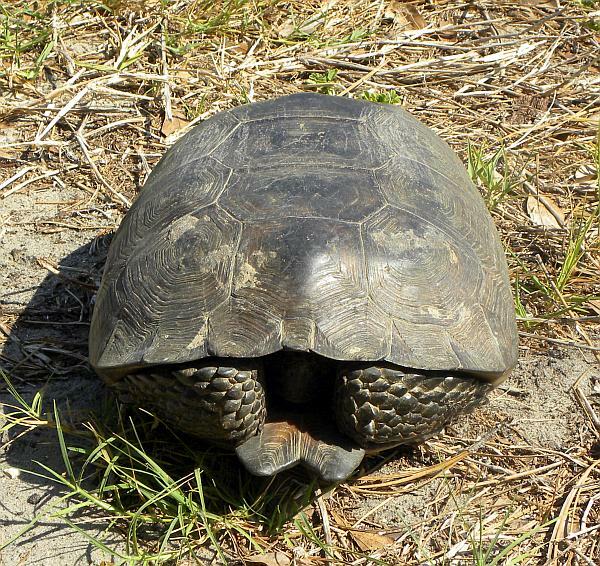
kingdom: Animalia
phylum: Chordata
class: Testudines
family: Testudinidae
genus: Gopherus
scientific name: Gopherus polyphemus
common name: Florida gopher tortoise
